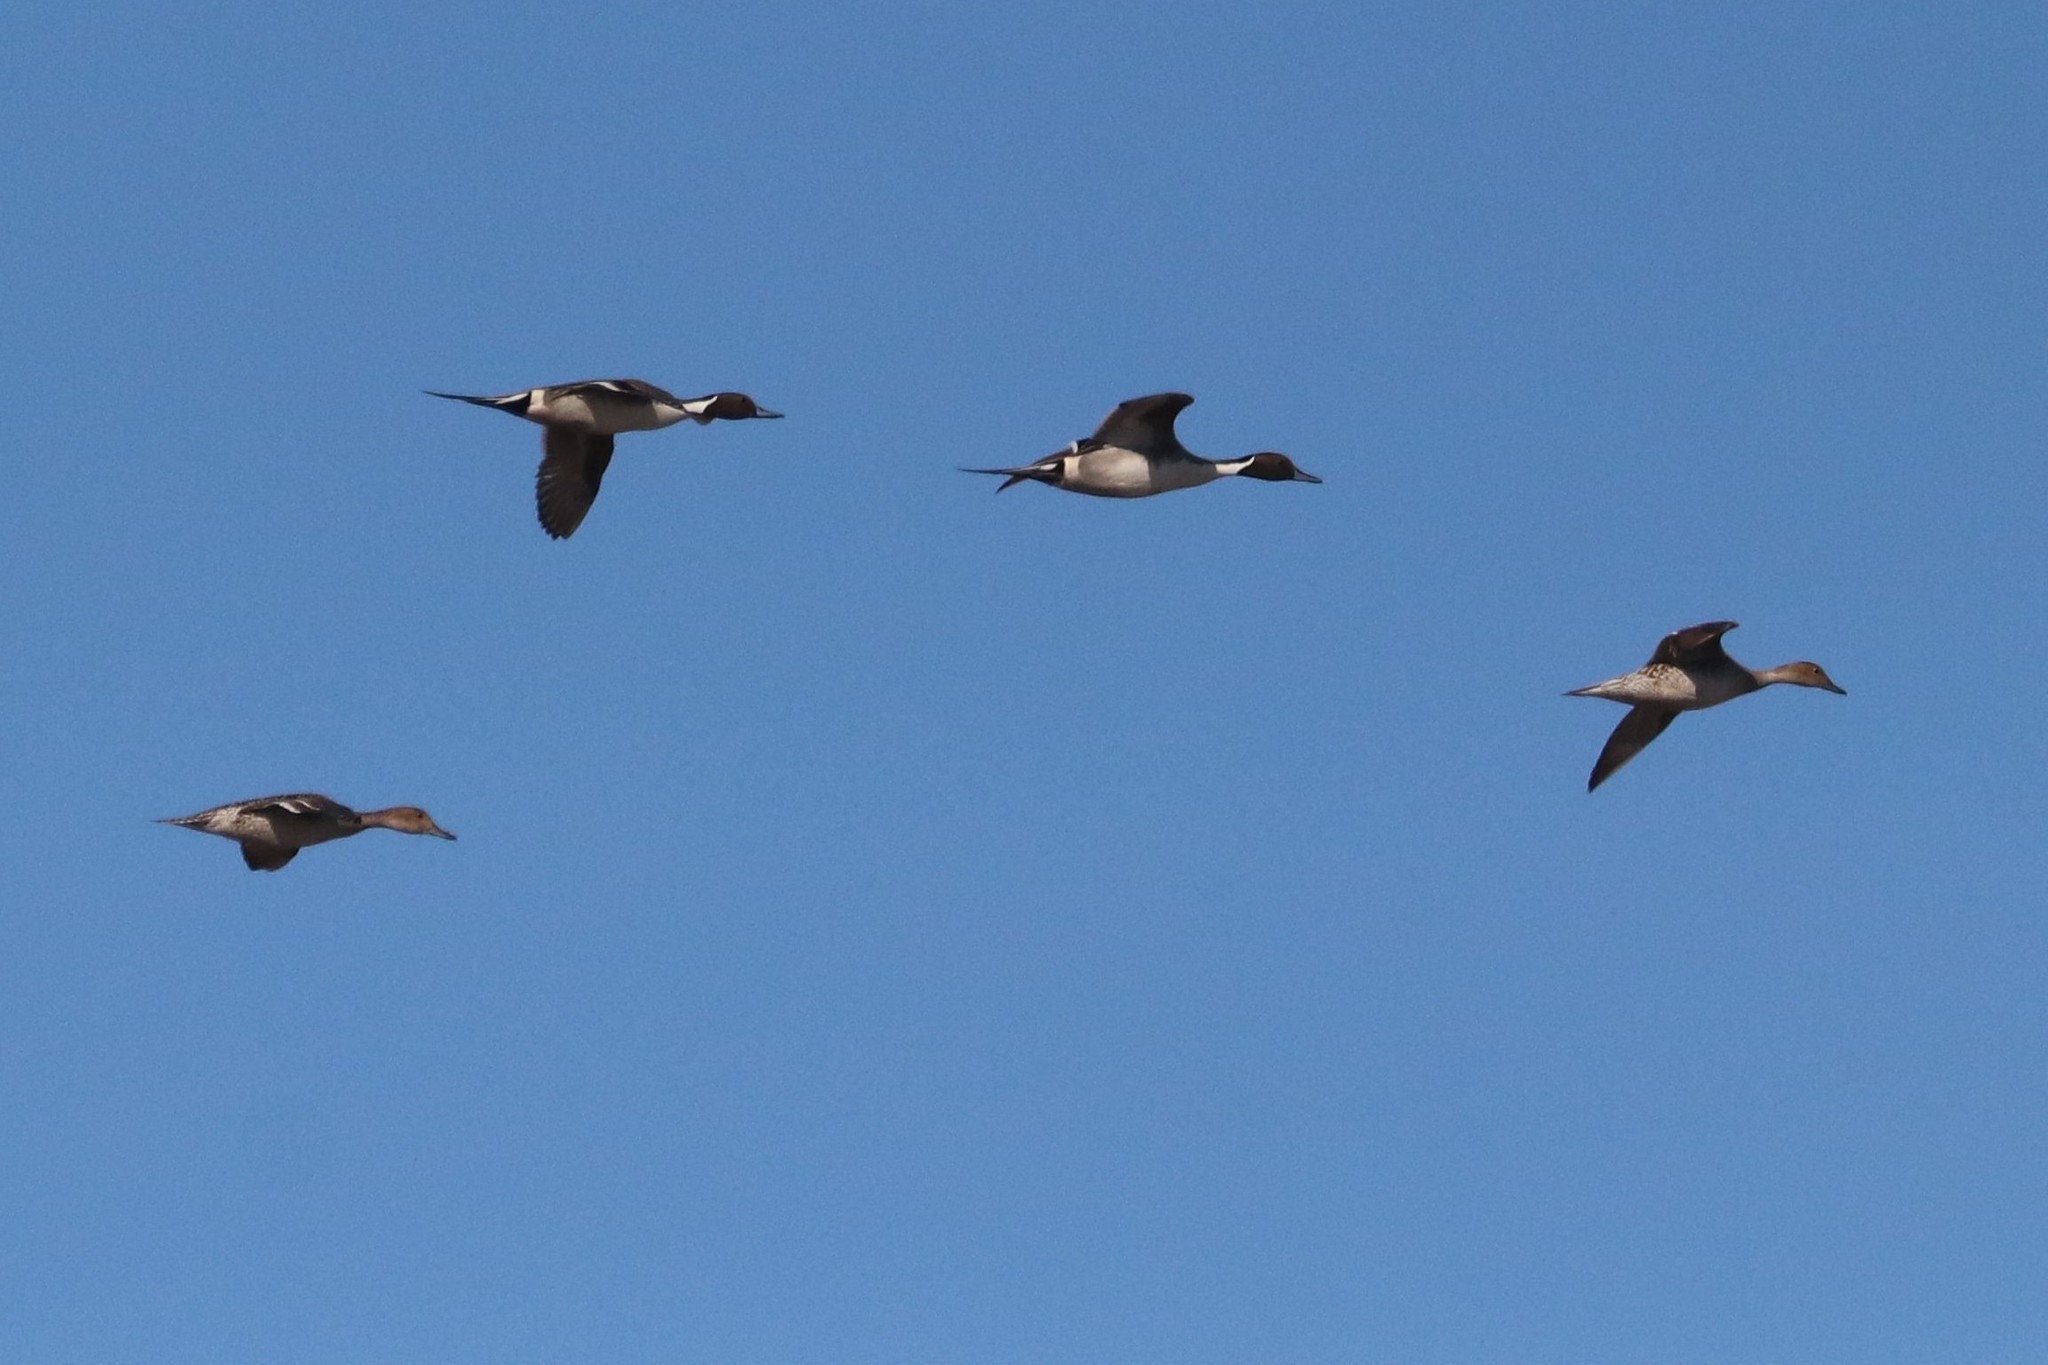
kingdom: Animalia
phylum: Chordata
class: Aves
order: Anseriformes
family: Anatidae
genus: Anas
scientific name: Anas acuta
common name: Northern pintail
